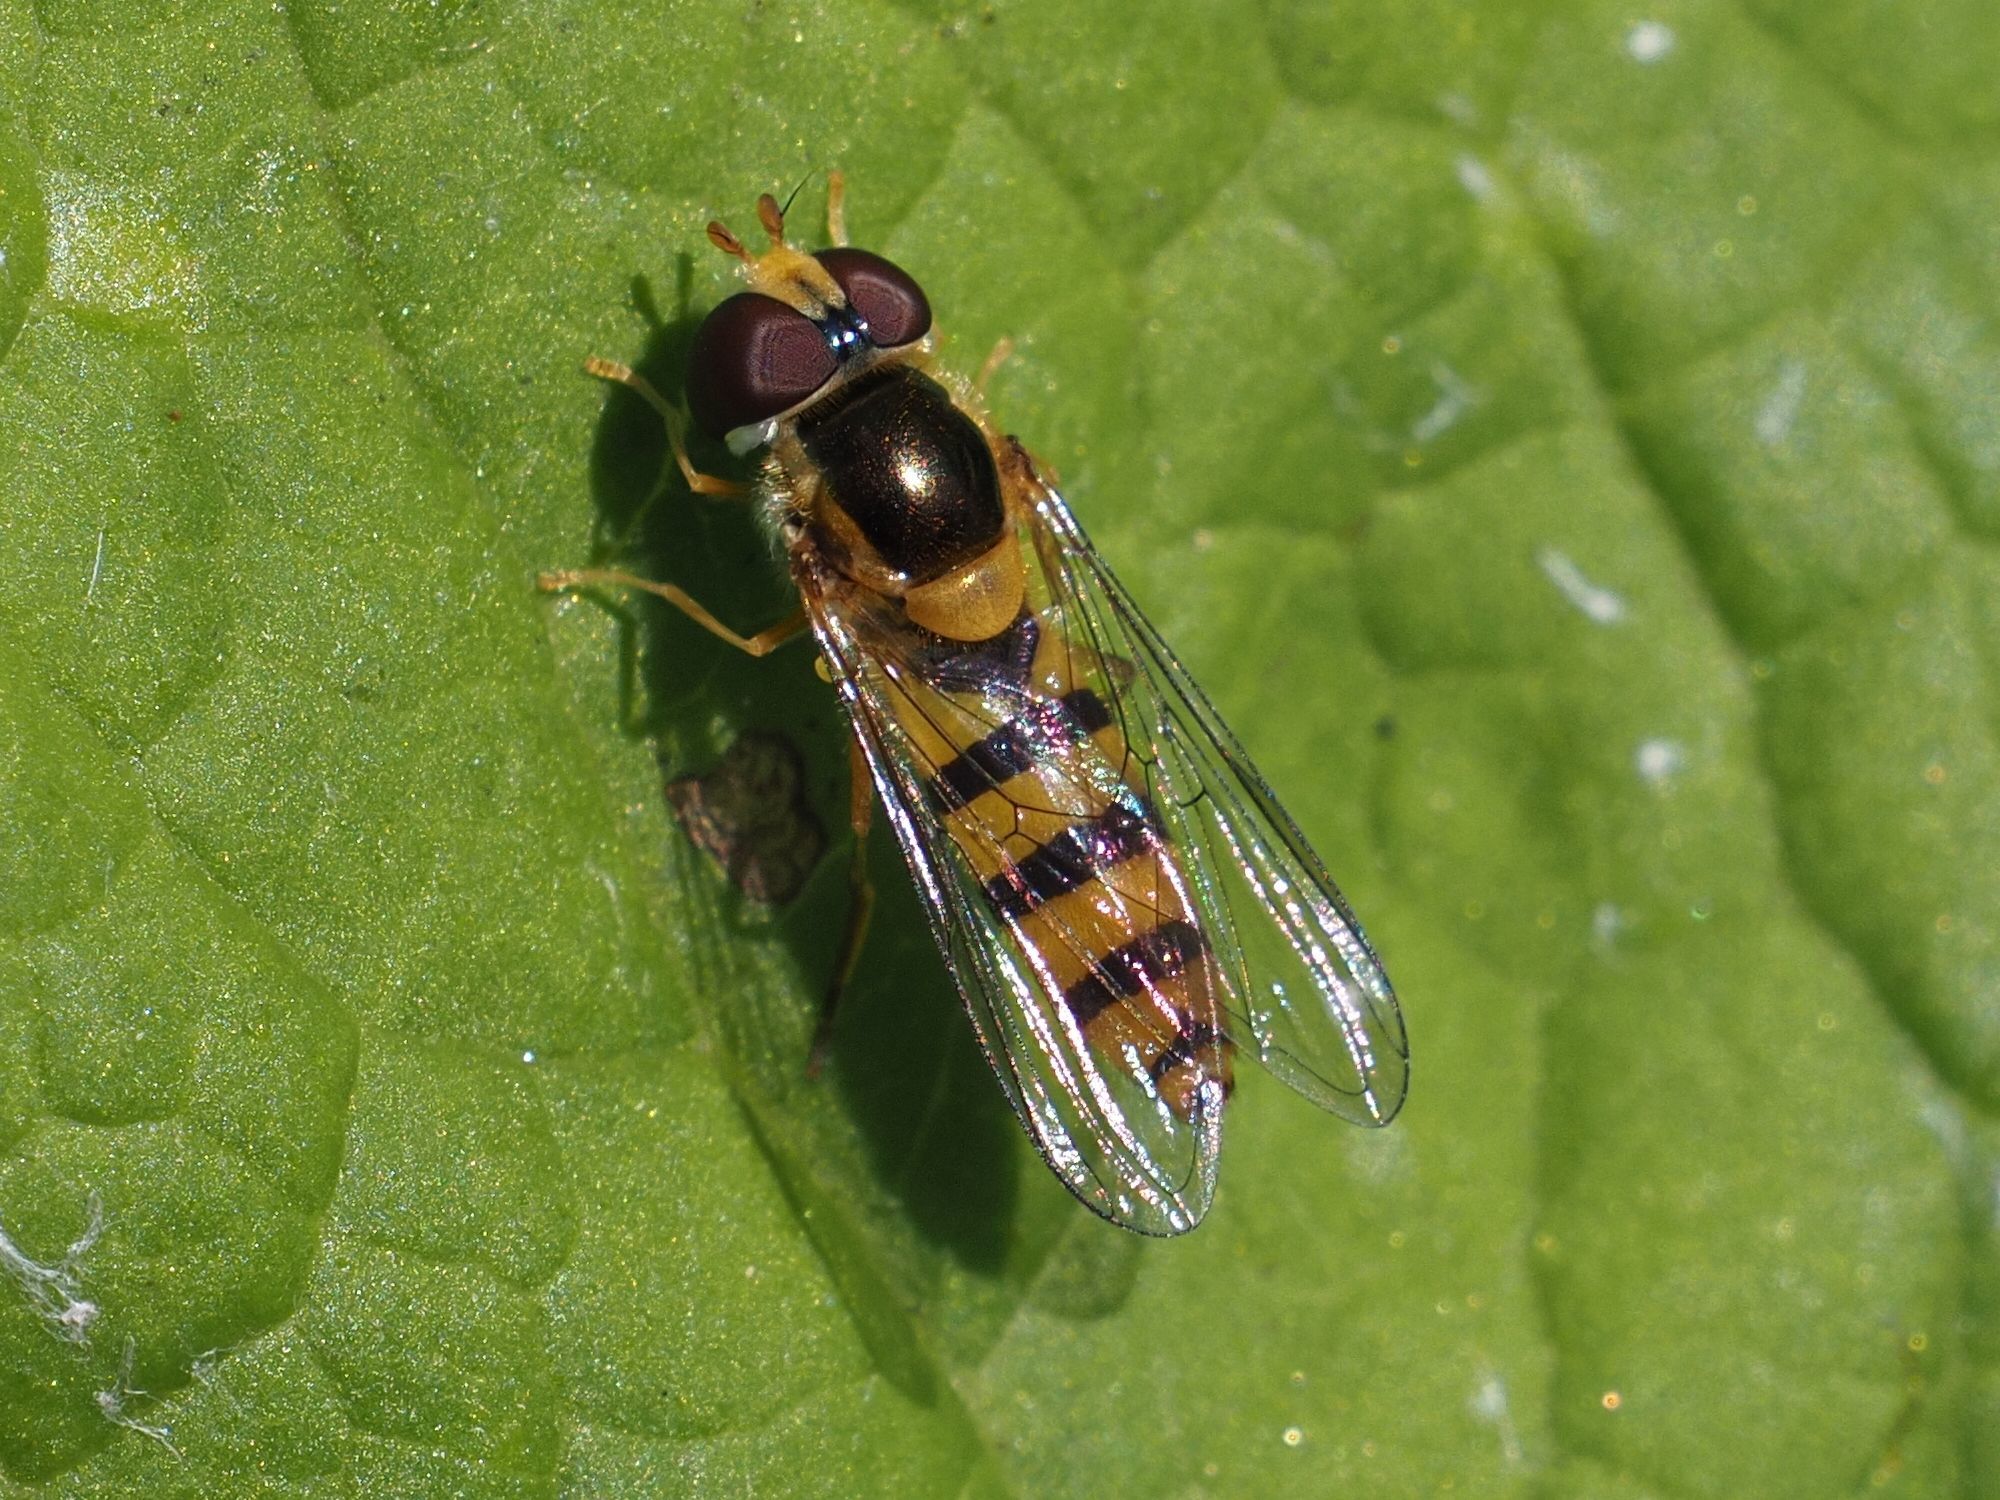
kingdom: Animalia
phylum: Arthropoda
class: Insecta
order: Diptera
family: Syrphidae
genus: Fagisyrphus
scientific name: Fagisyrphus cincta
